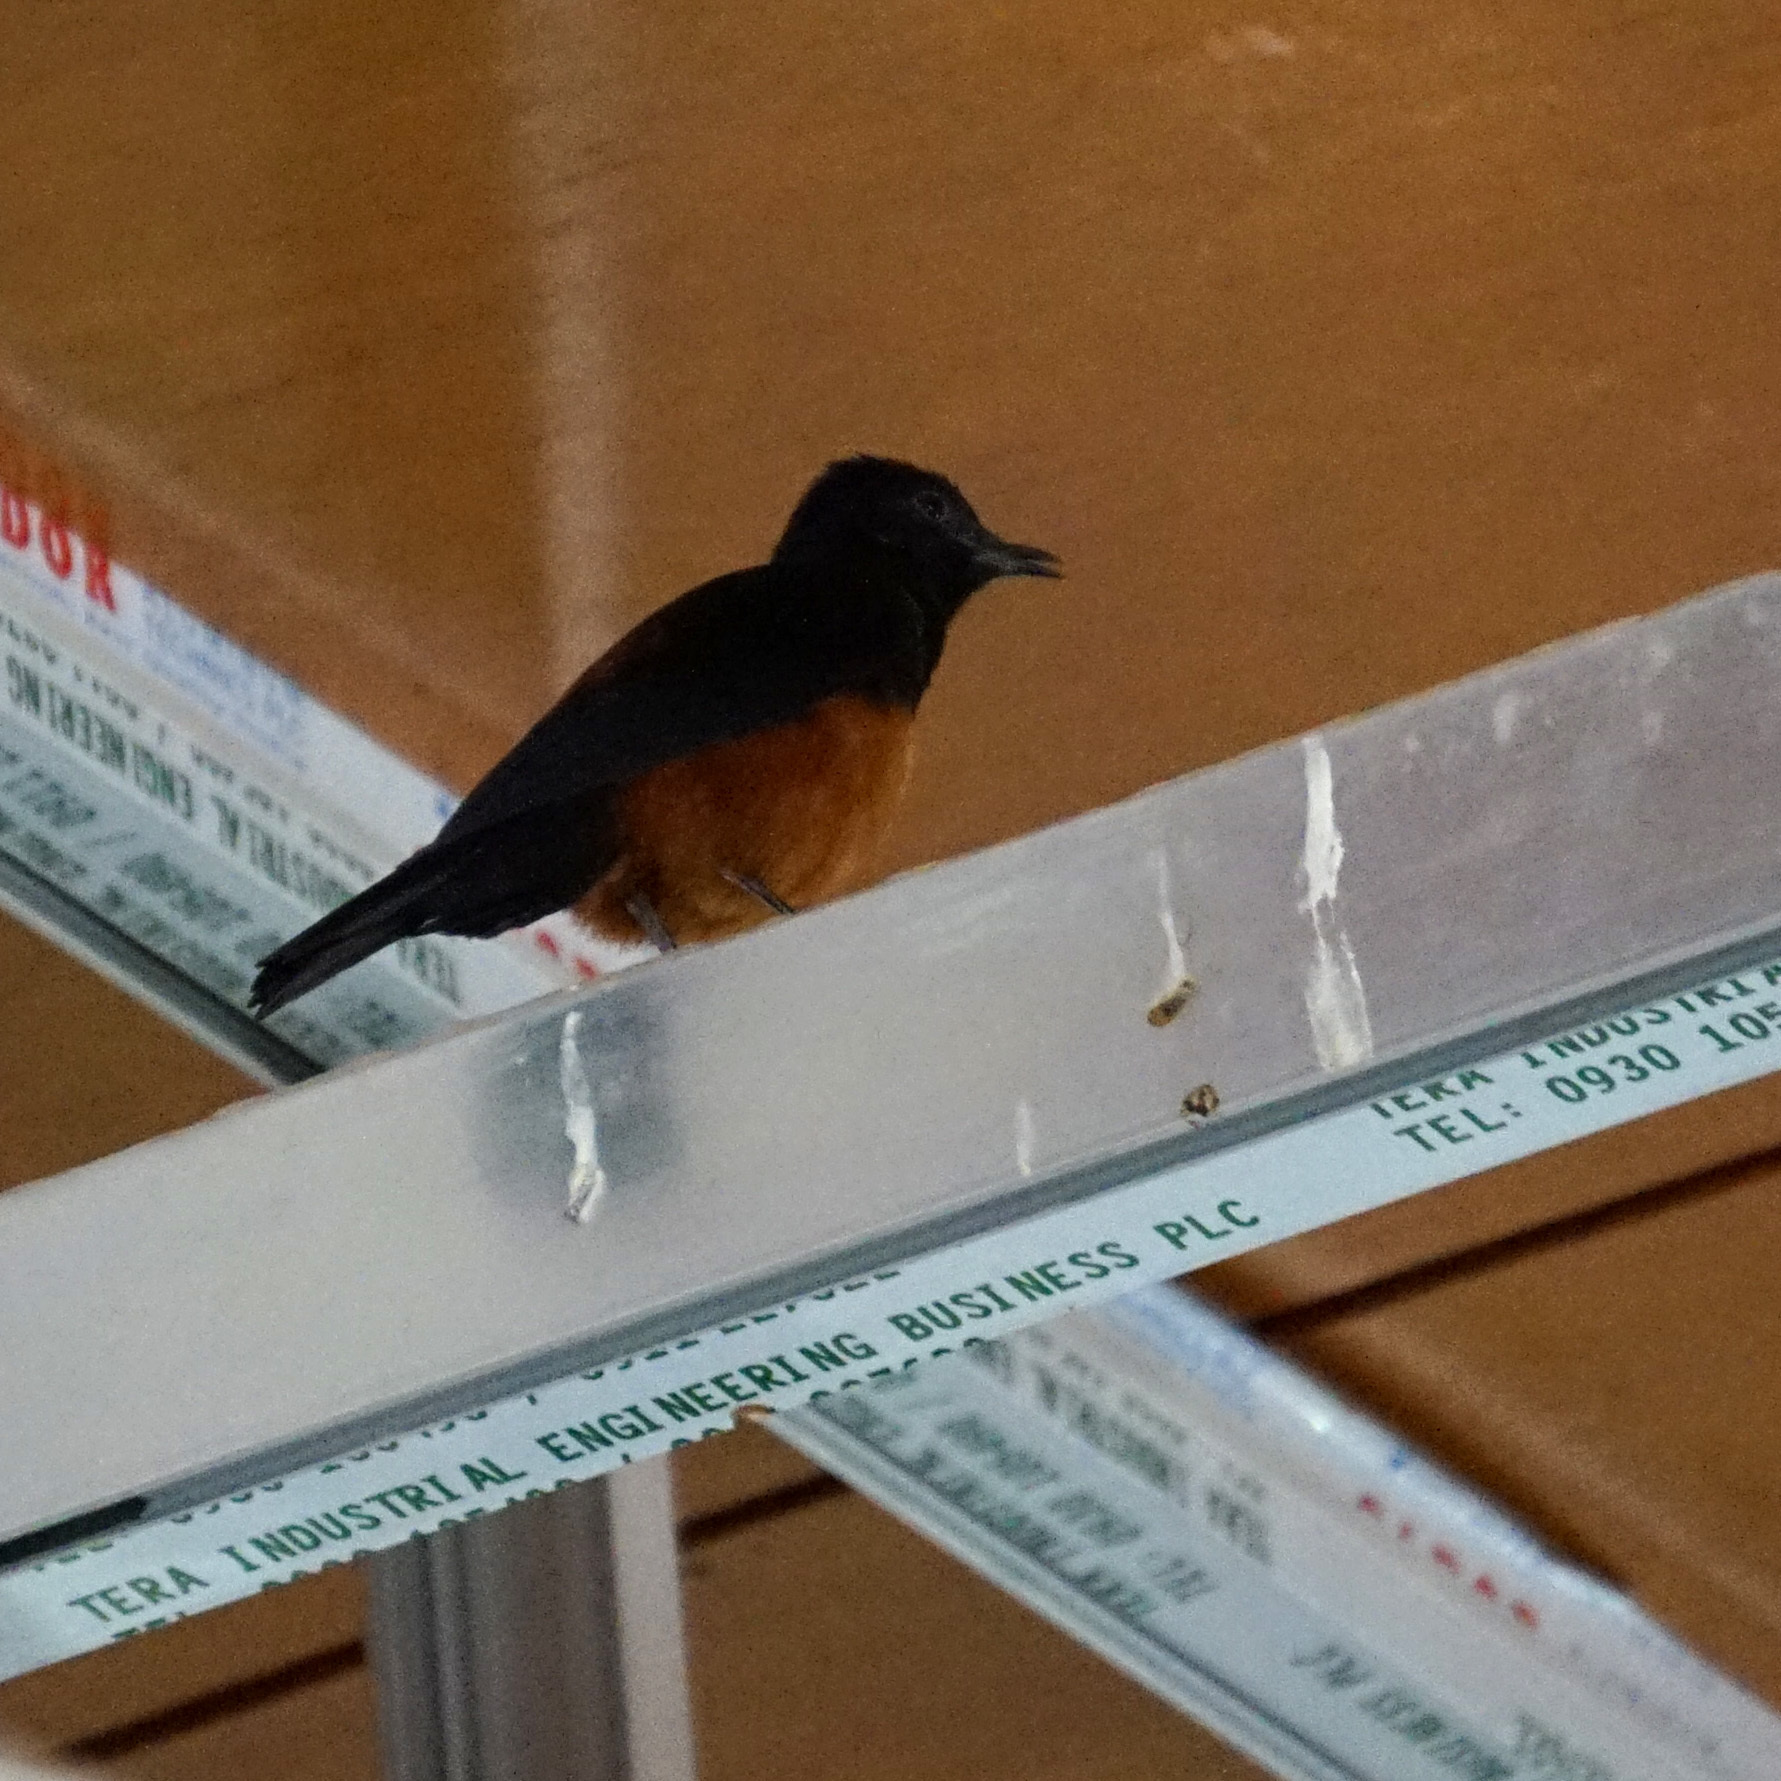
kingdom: Animalia
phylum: Chordata
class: Aves
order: Passeriformes
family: Muscicapidae
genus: Thamnolaea
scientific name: Thamnolaea cinnamomeiventris
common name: Mocking cliff chat
